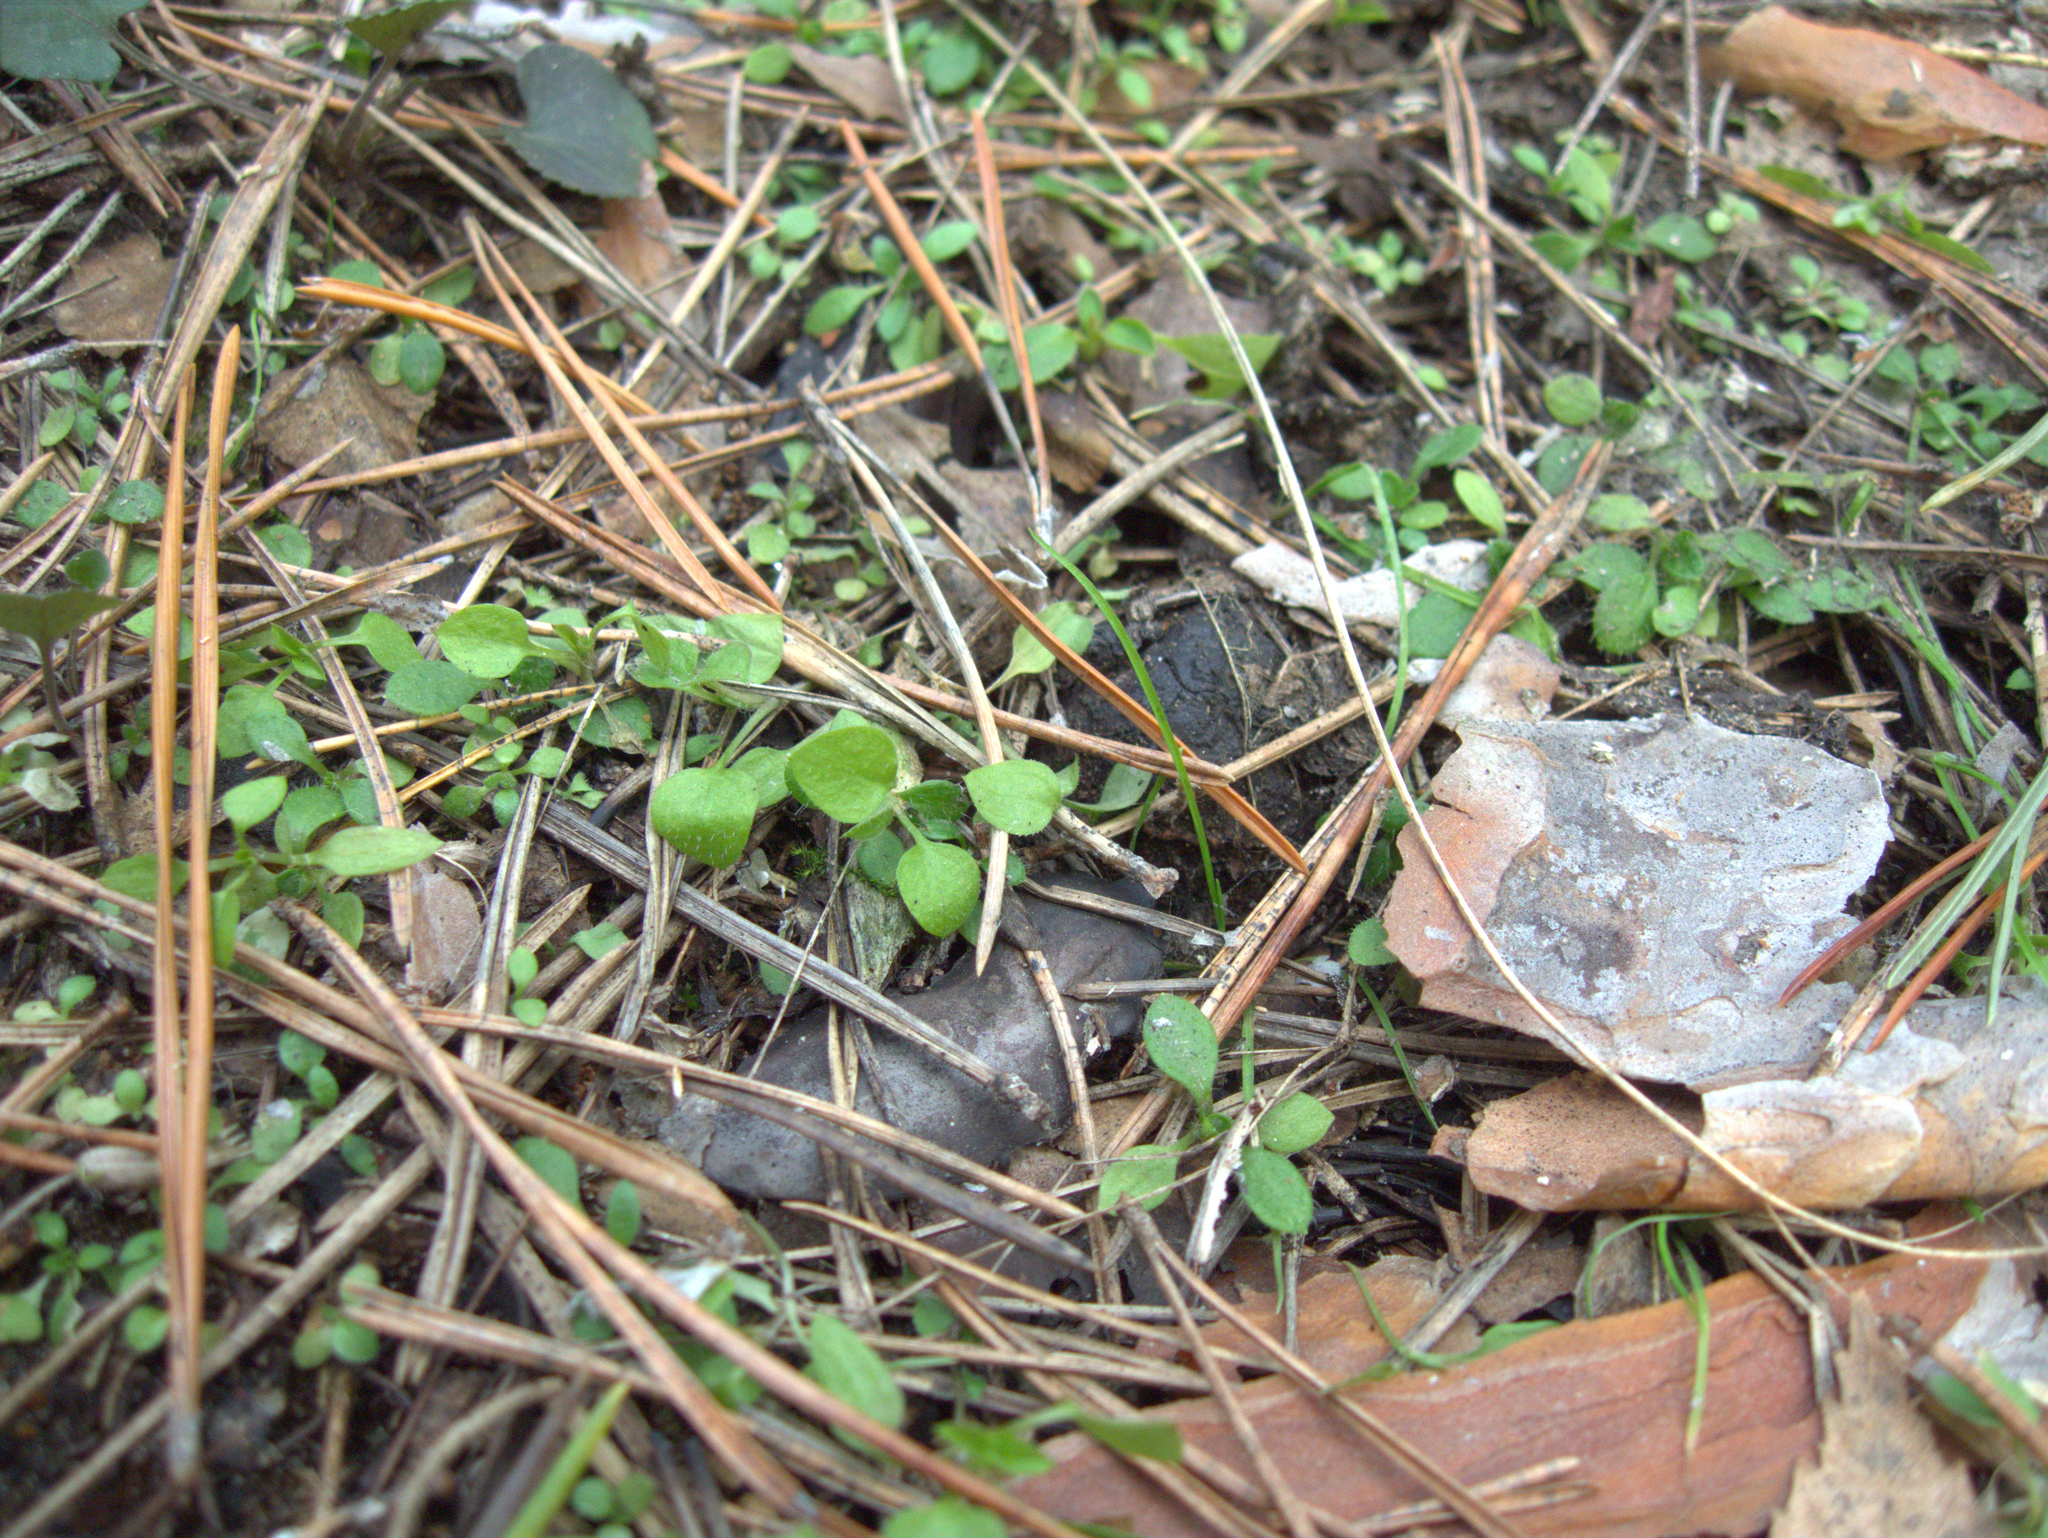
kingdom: Plantae
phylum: Tracheophyta
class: Magnoliopsida
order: Caryophyllales
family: Caryophyllaceae
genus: Moehringia
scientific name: Moehringia trinervia
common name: Three-nerved sandwort
